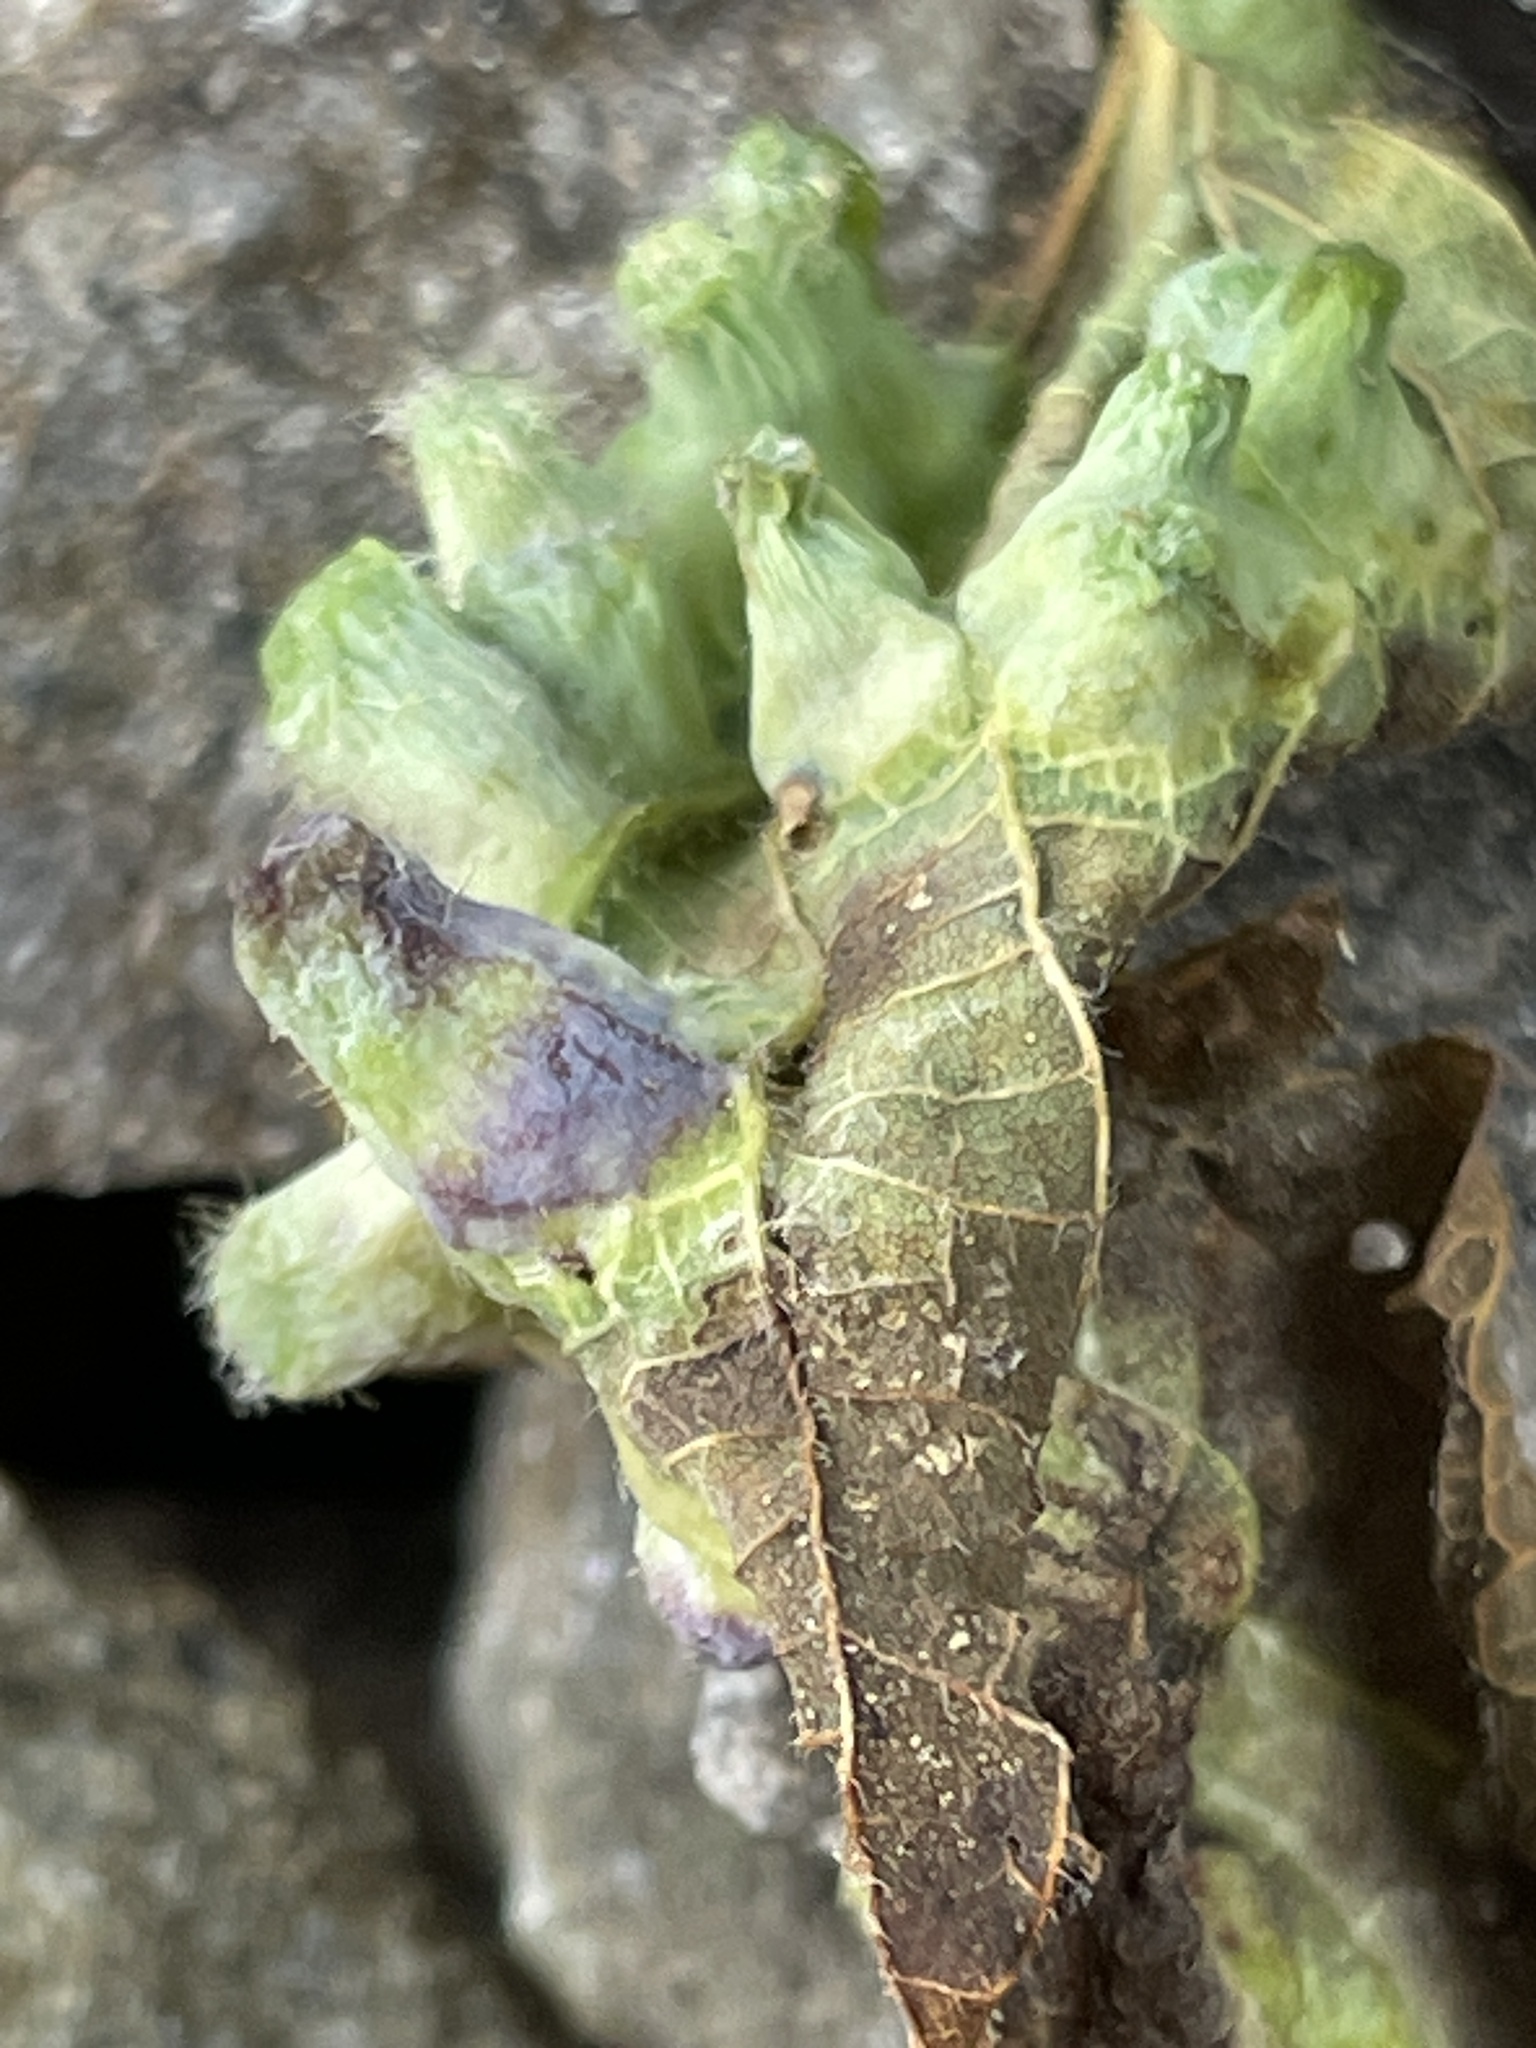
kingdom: Animalia
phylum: Arthropoda
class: Insecta
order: Hemiptera
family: Aphalaridae
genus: Pachypsylla
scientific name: Pachypsylla celtidismamma
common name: Hackberry nipplegall psyllid
